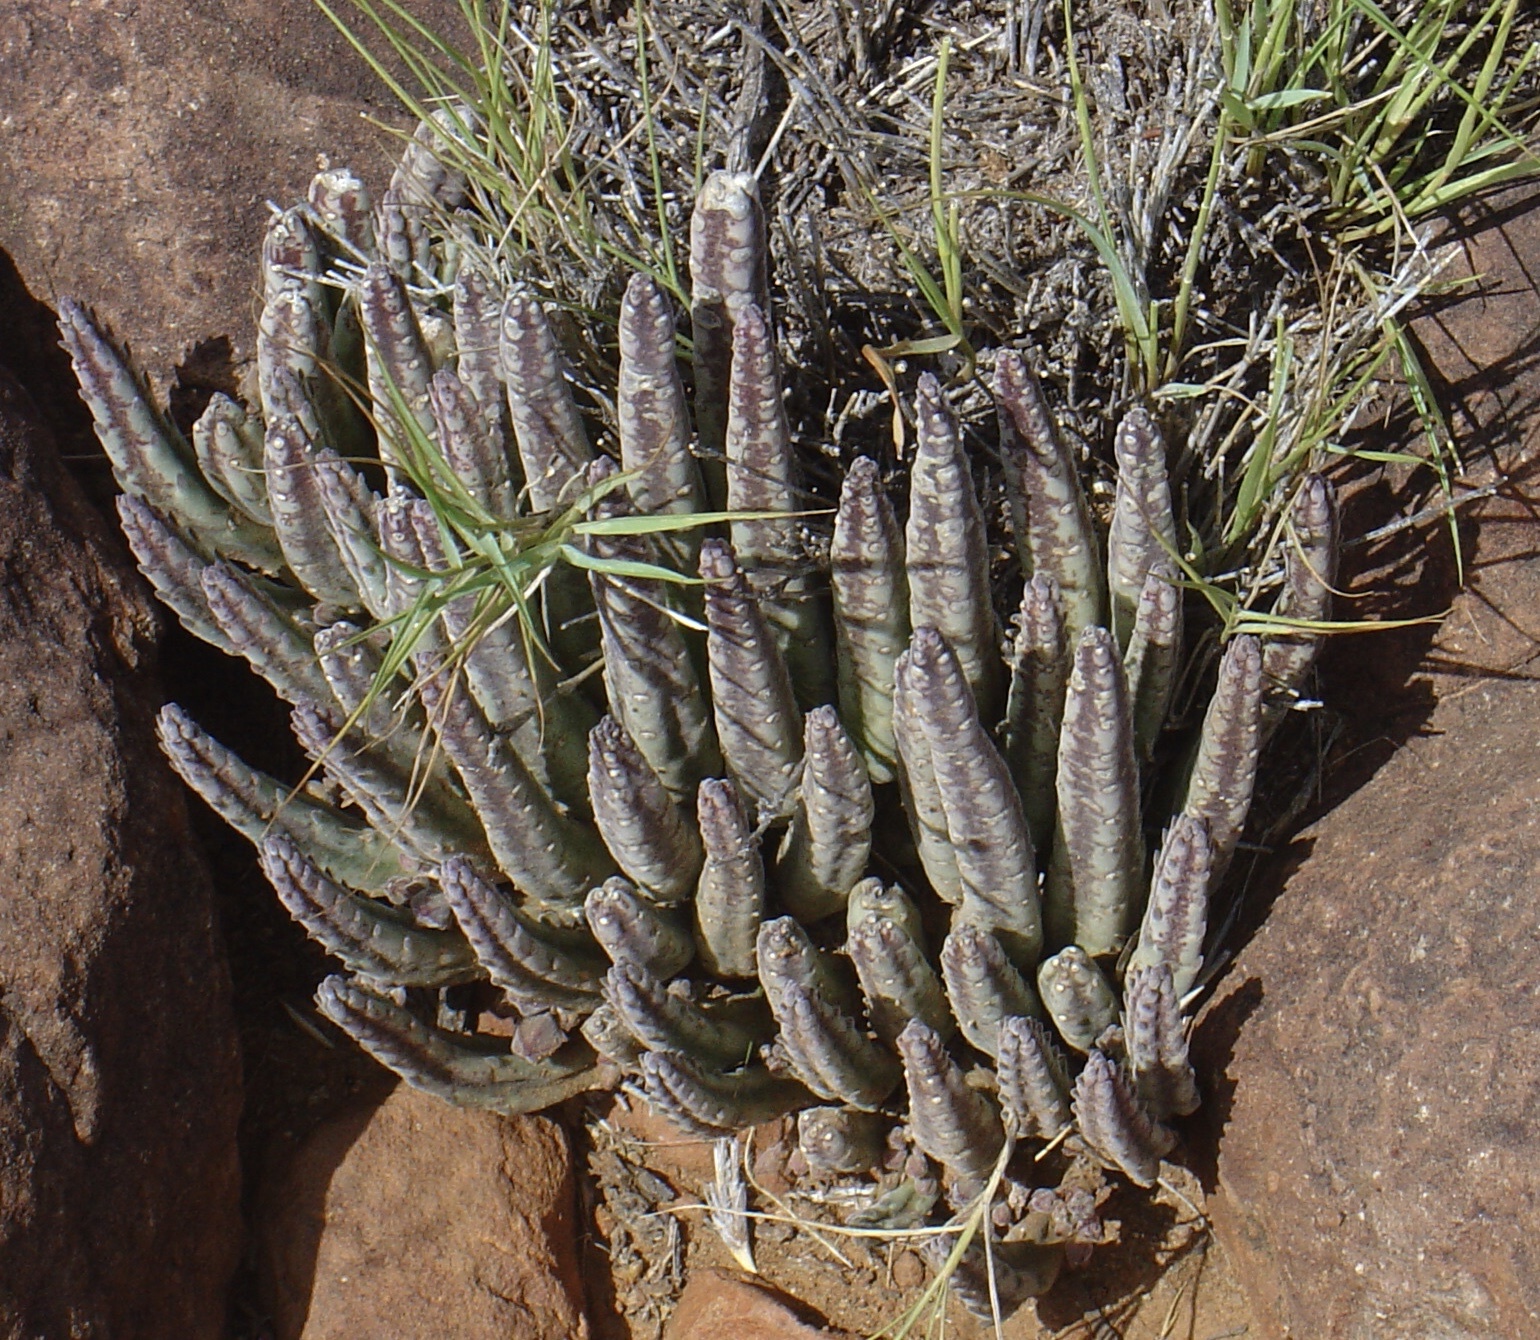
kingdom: Plantae
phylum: Tracheophyta
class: Magnoliopsida
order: Gentianales
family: Apocynaceae
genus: Ceropegia
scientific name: Ceropegia flavopurpurea
